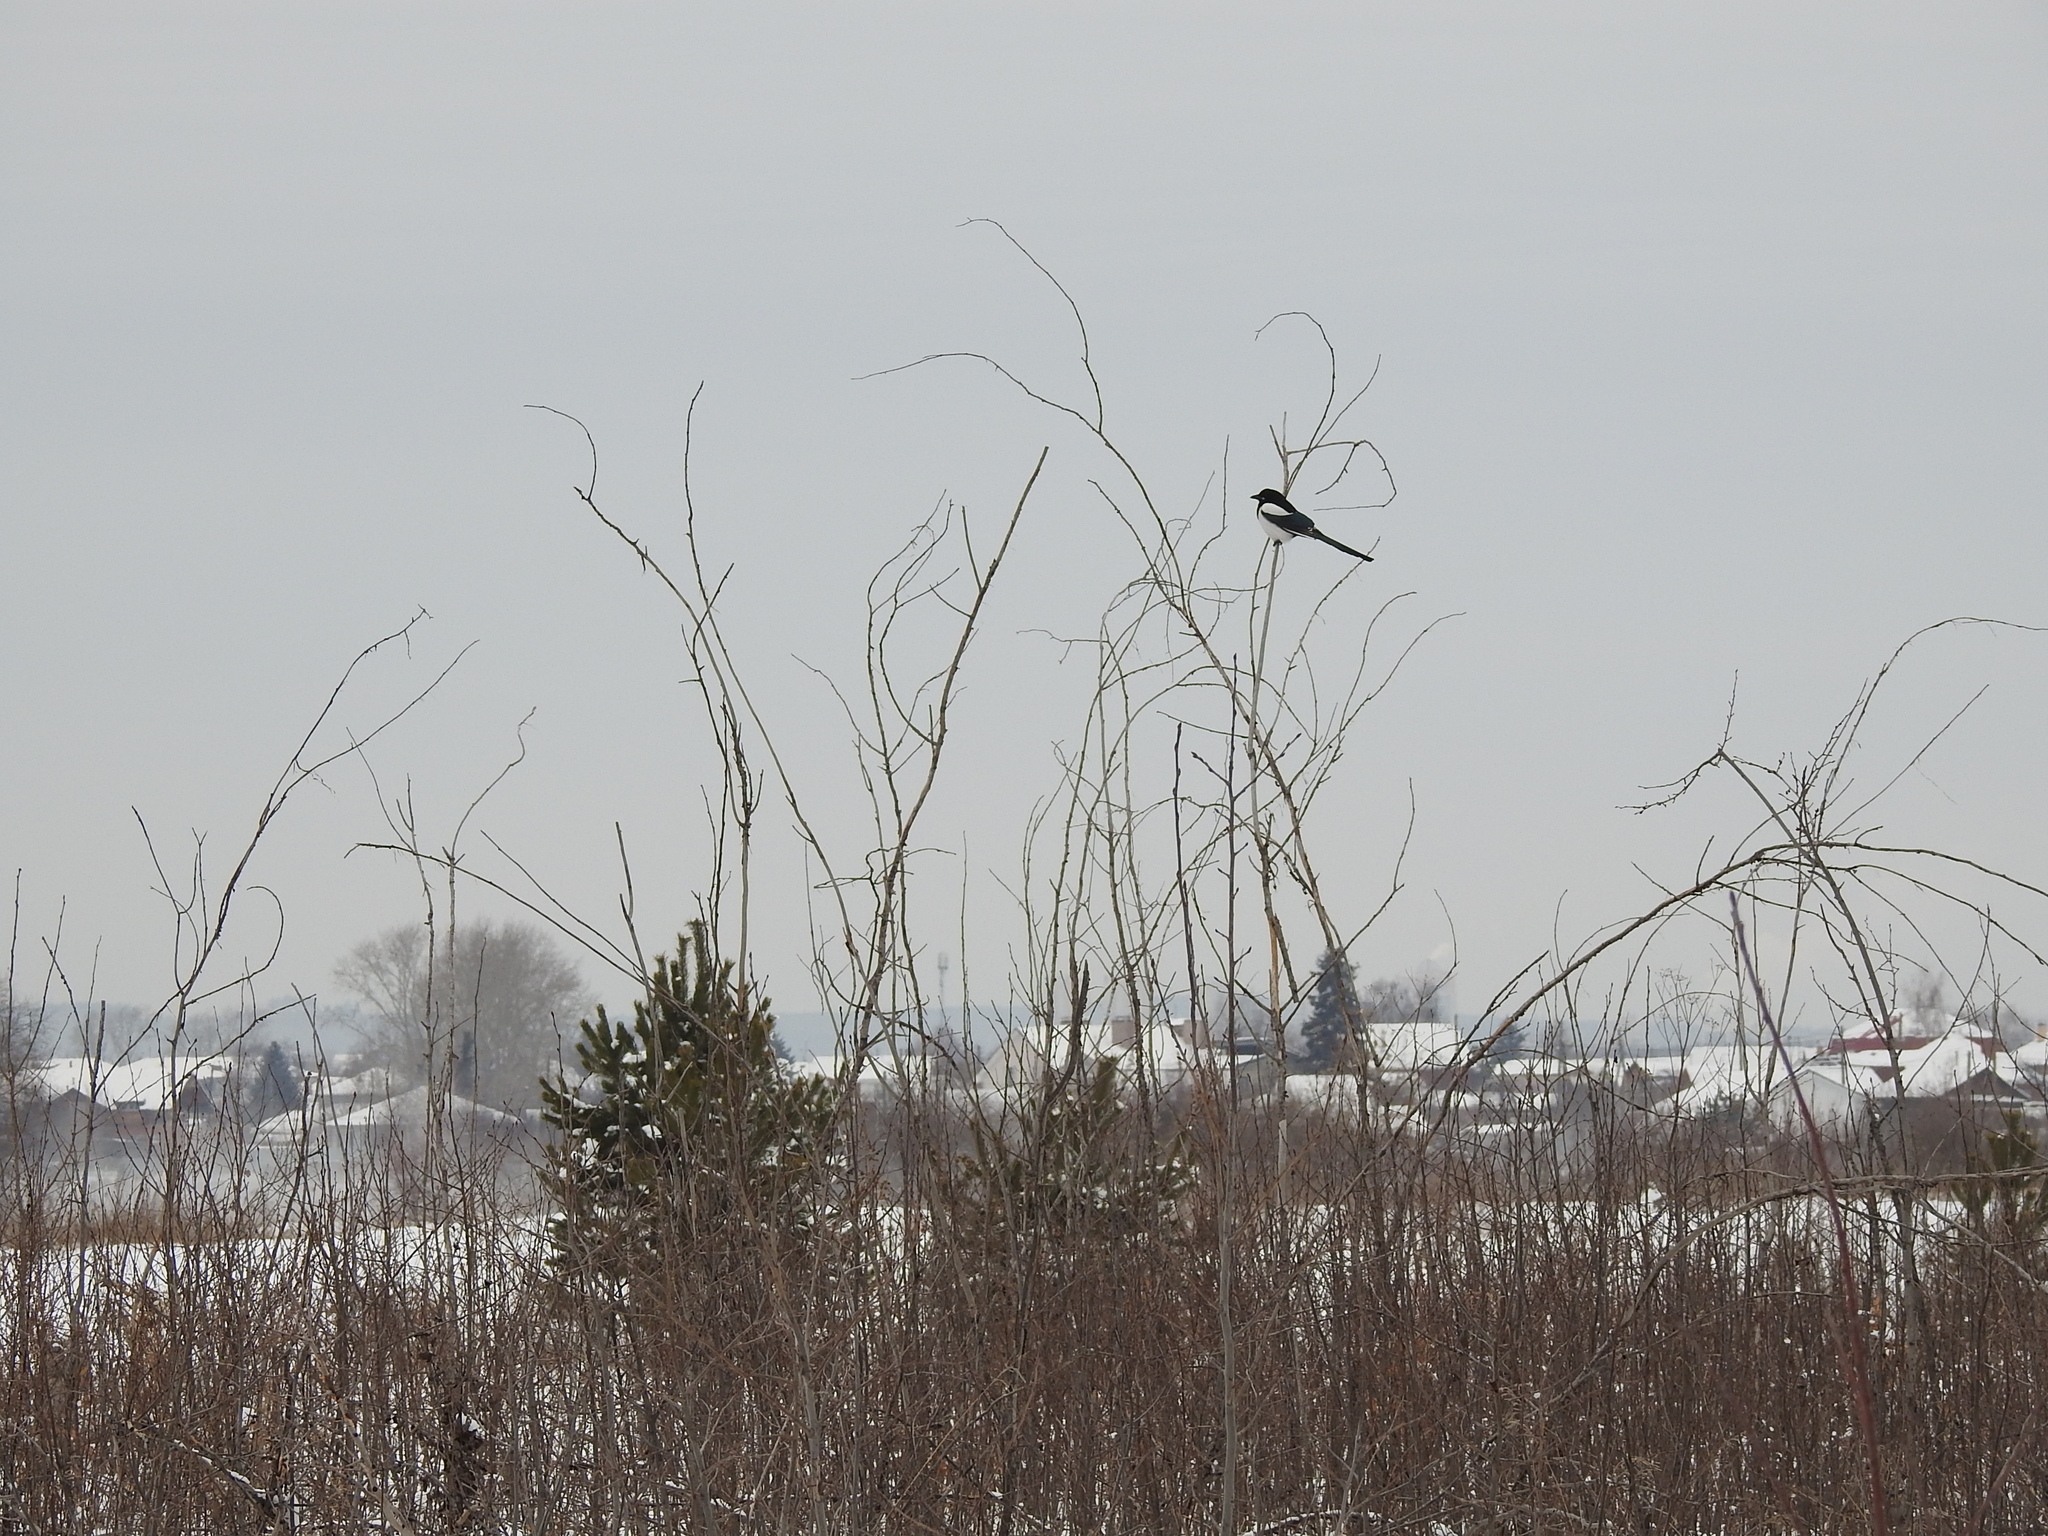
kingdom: Animalia
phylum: Chordata
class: Aves
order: Passeriformes
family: Corvidae
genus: Pica
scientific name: Pica pica
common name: Eurasian magpie
